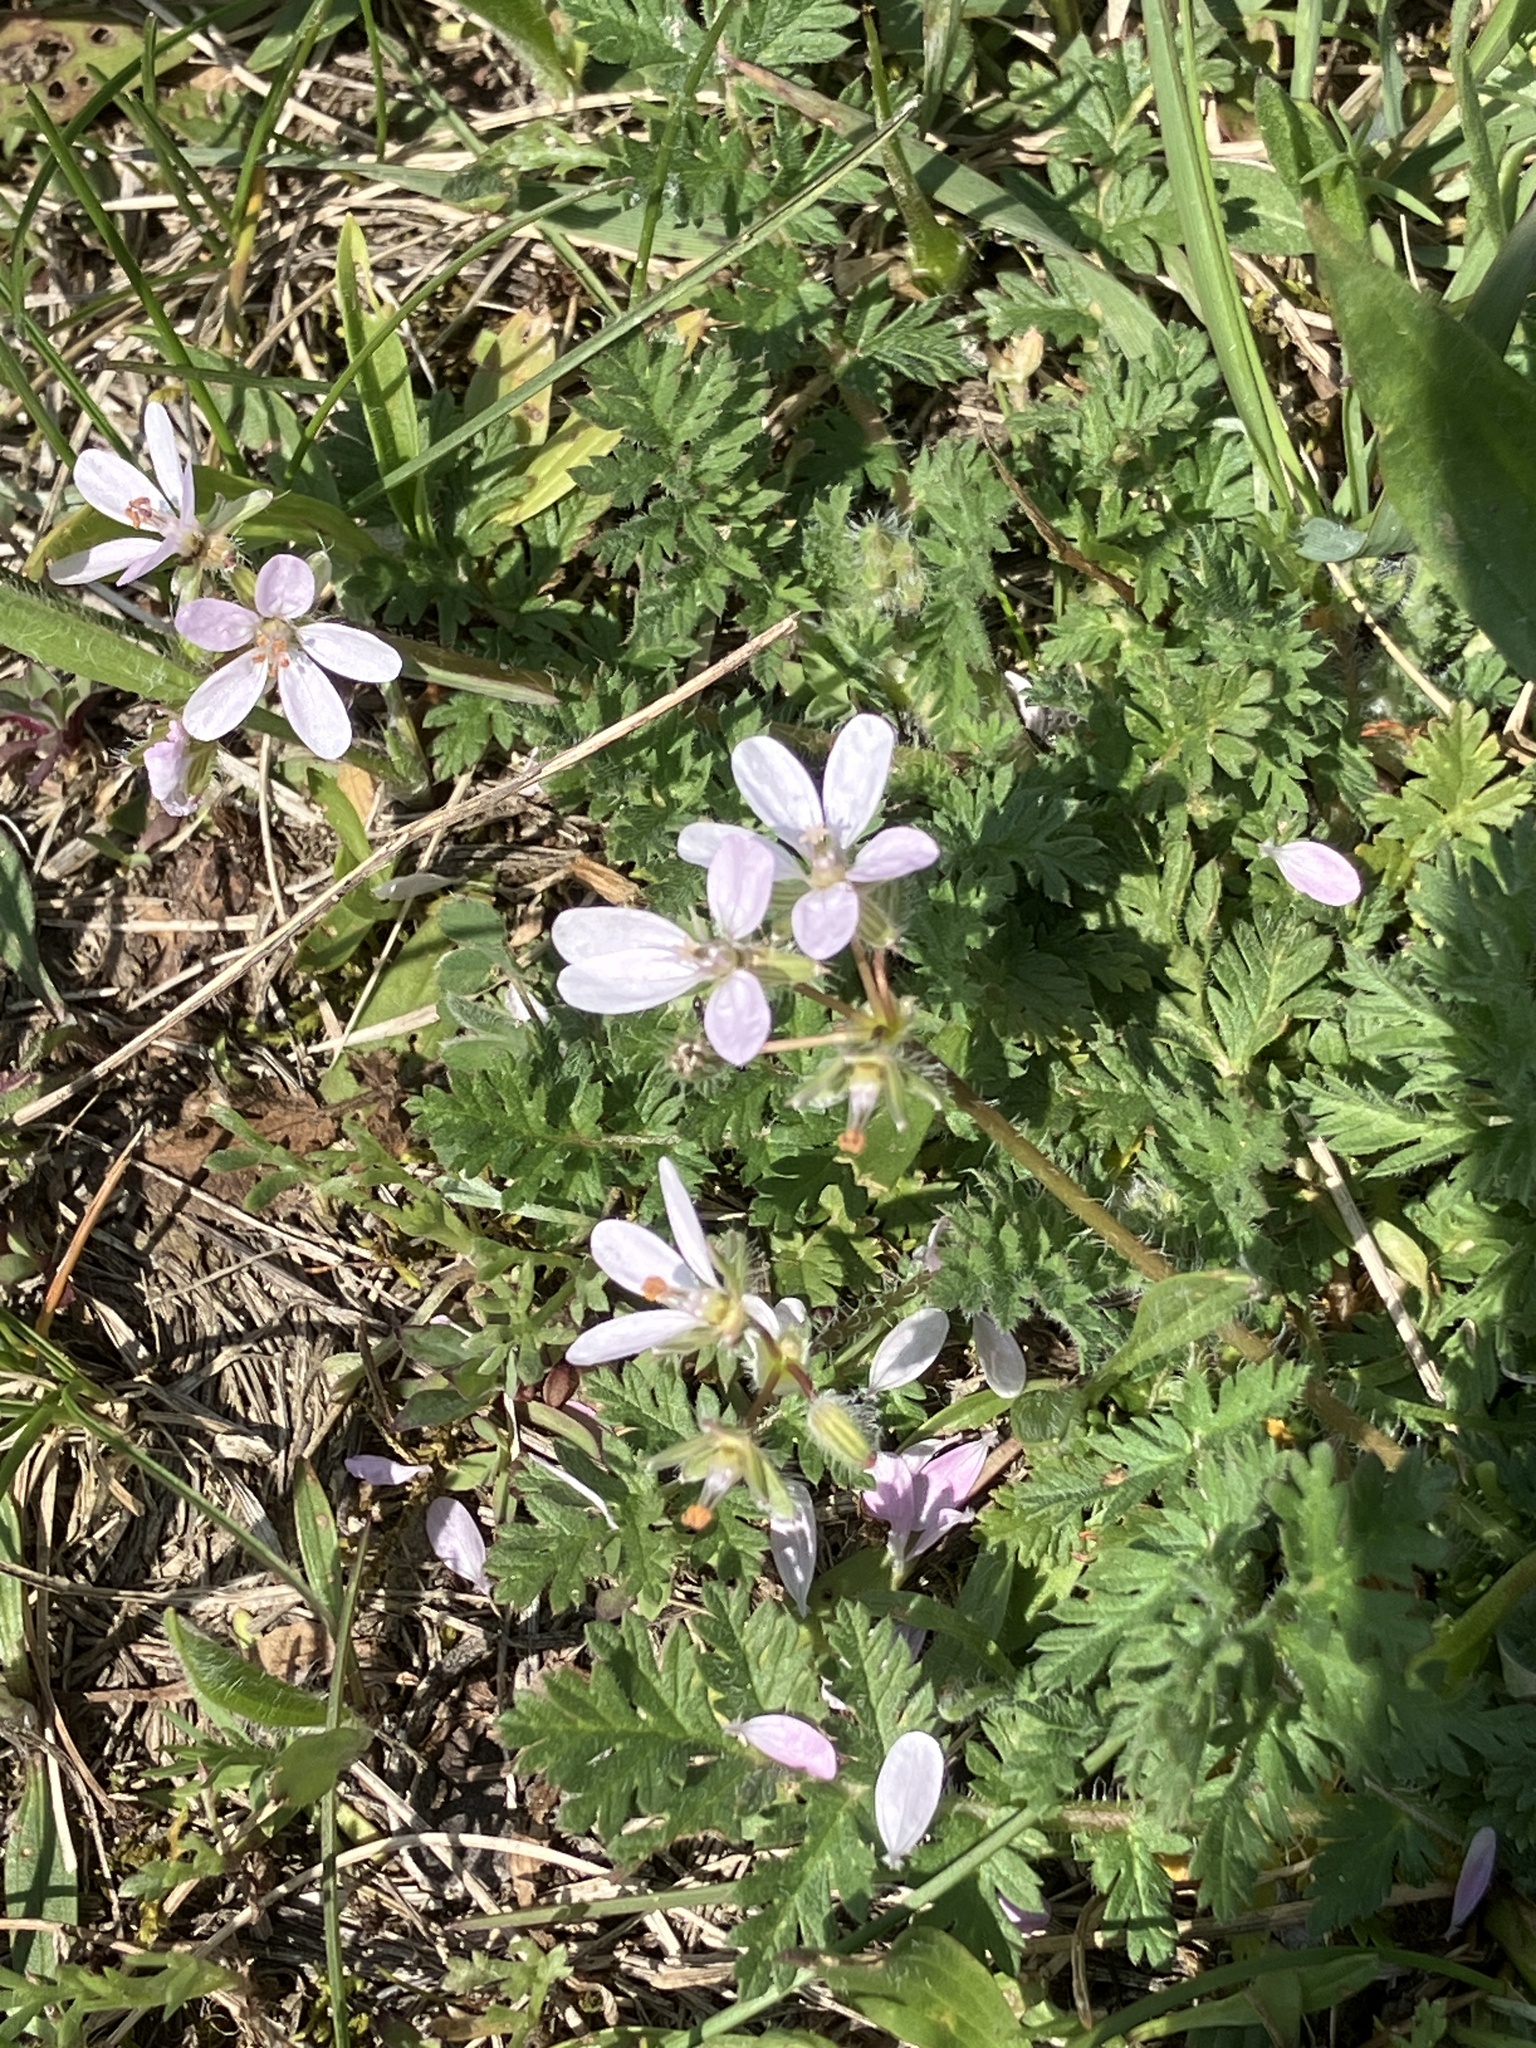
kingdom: Plantae
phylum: Tracheophyta
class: Magnoliopsida
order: Geraniales
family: Geraniaceae
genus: Erodium
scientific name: Erodium cicutarium
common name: Common stork's-bill
